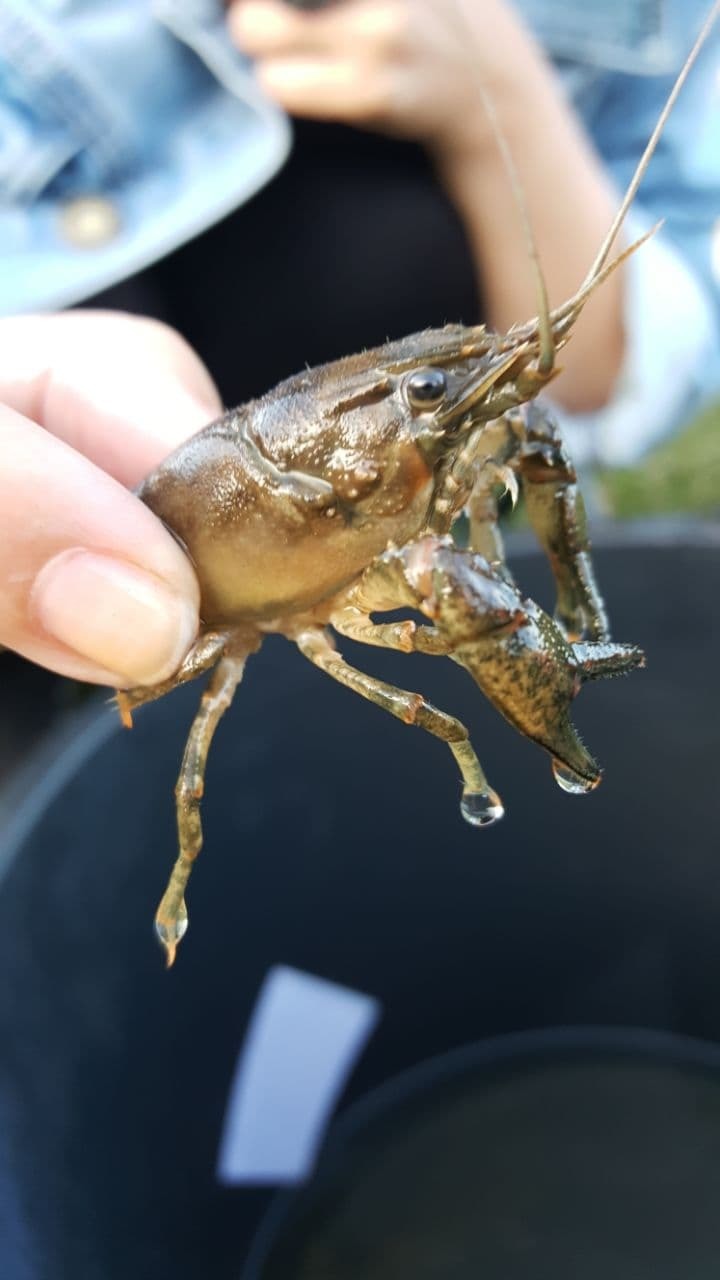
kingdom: Animalia
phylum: Arthropoda
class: Malacostraca
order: Decapoda
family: Cambaridae
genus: Faxonius
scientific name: Faxonius limosus
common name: American crayfish
